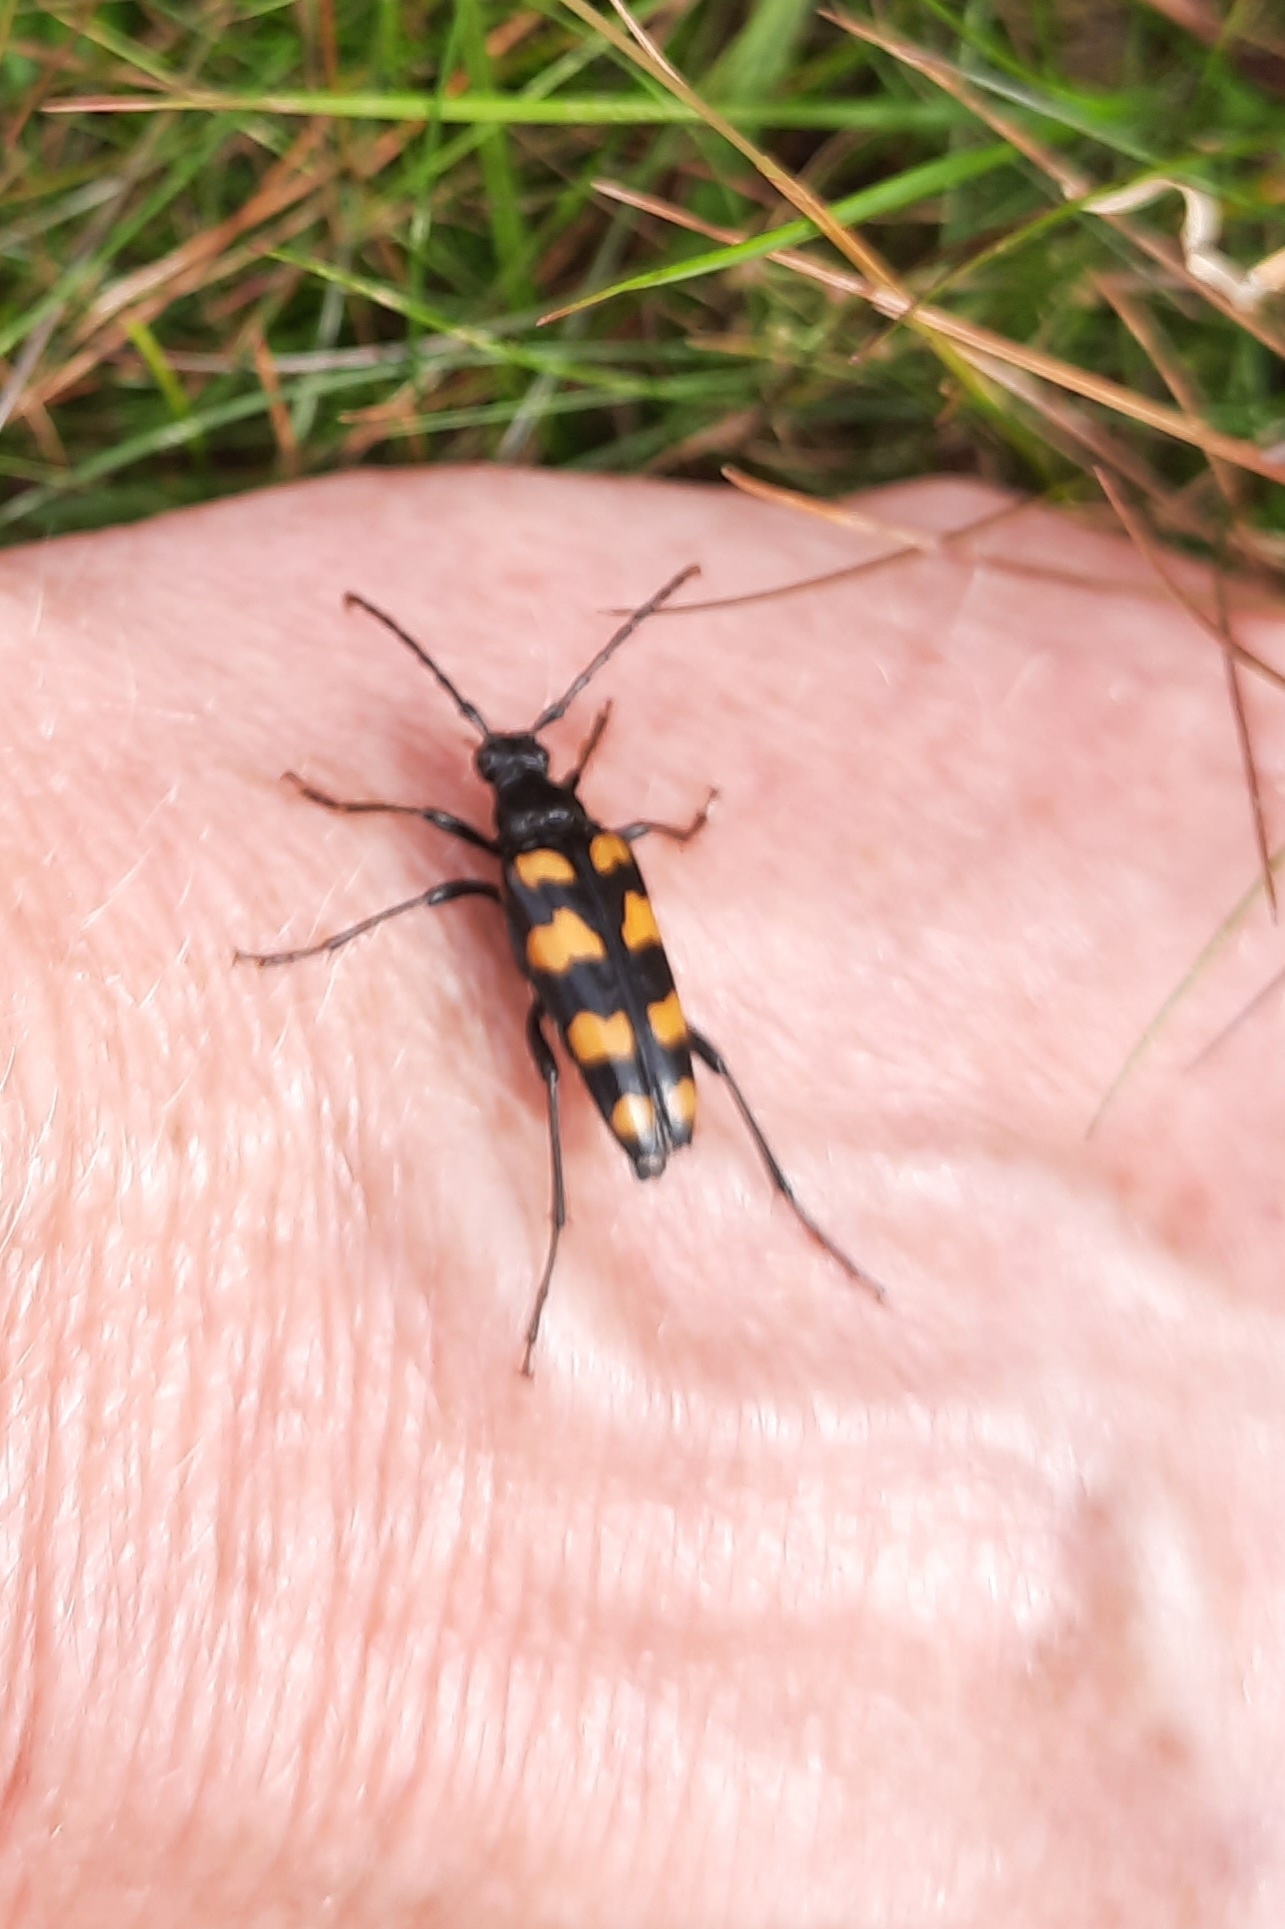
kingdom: Animalia
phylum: Arthropoda
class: Insecta
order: Coleoptera
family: Cerambycidae
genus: Leptura
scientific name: Leptura quadrifasciata
